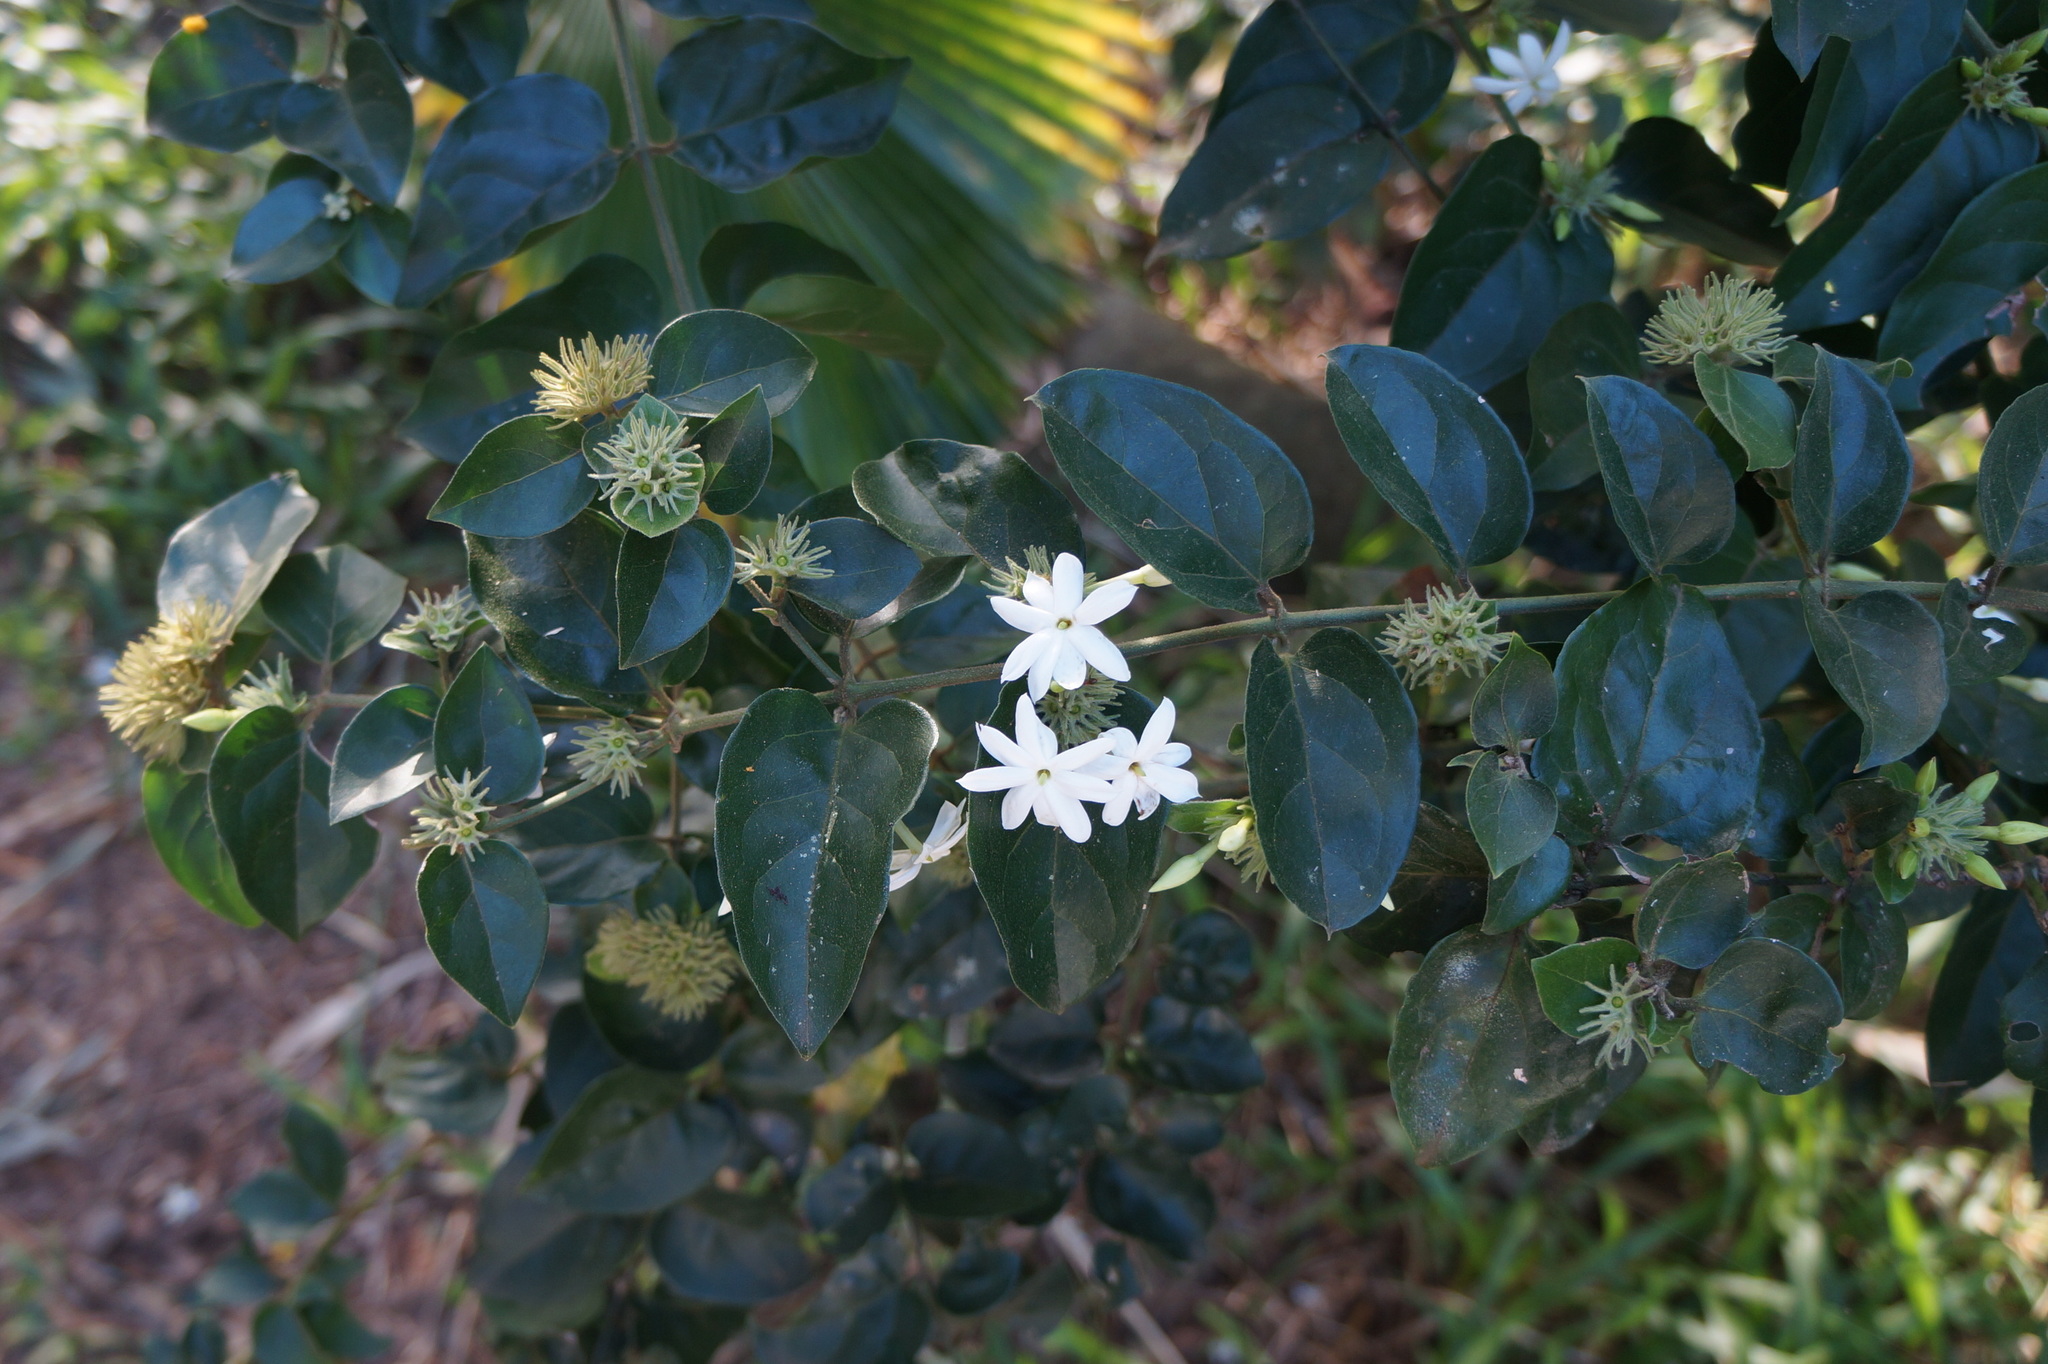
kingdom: Plantae
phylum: Tracheophyta
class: Magnoliopsida
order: Lamiales
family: Oleaceae
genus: Jasminum
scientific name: Jasminum multiflorum
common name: Star jasmine
